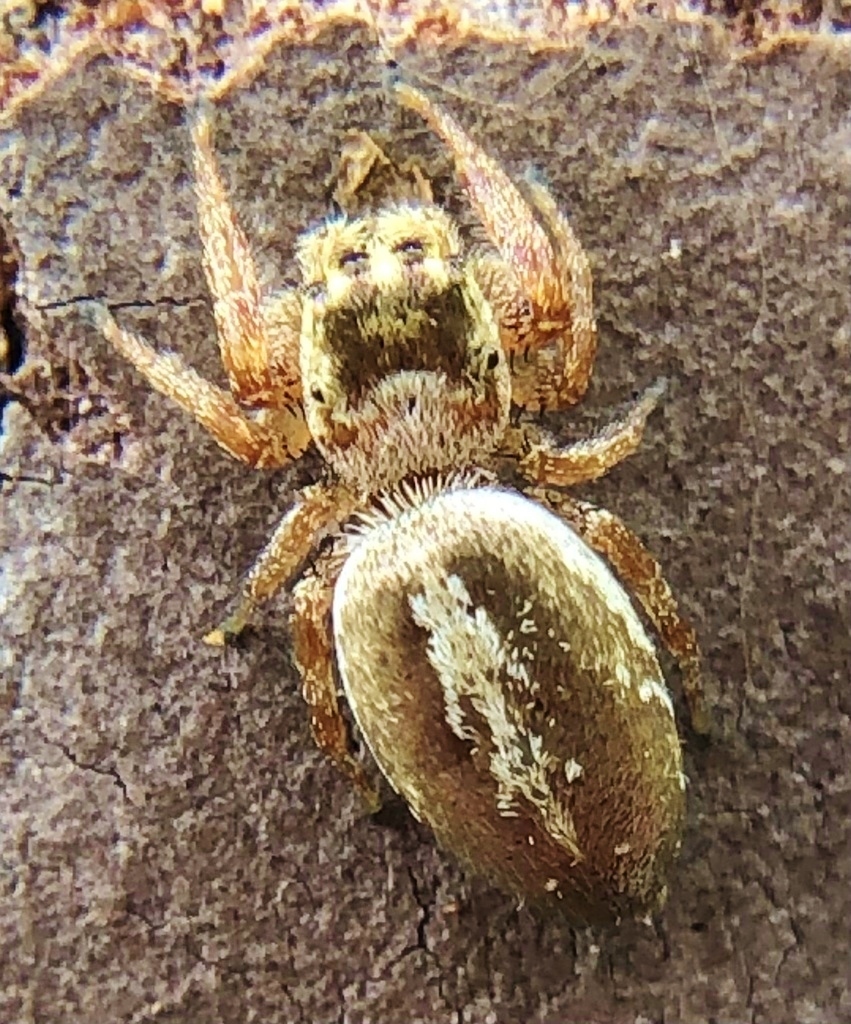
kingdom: Animalia
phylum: Arthropoda
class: Arachnida
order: Araneae
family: Salticidae
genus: Eris
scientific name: Eris floridana
